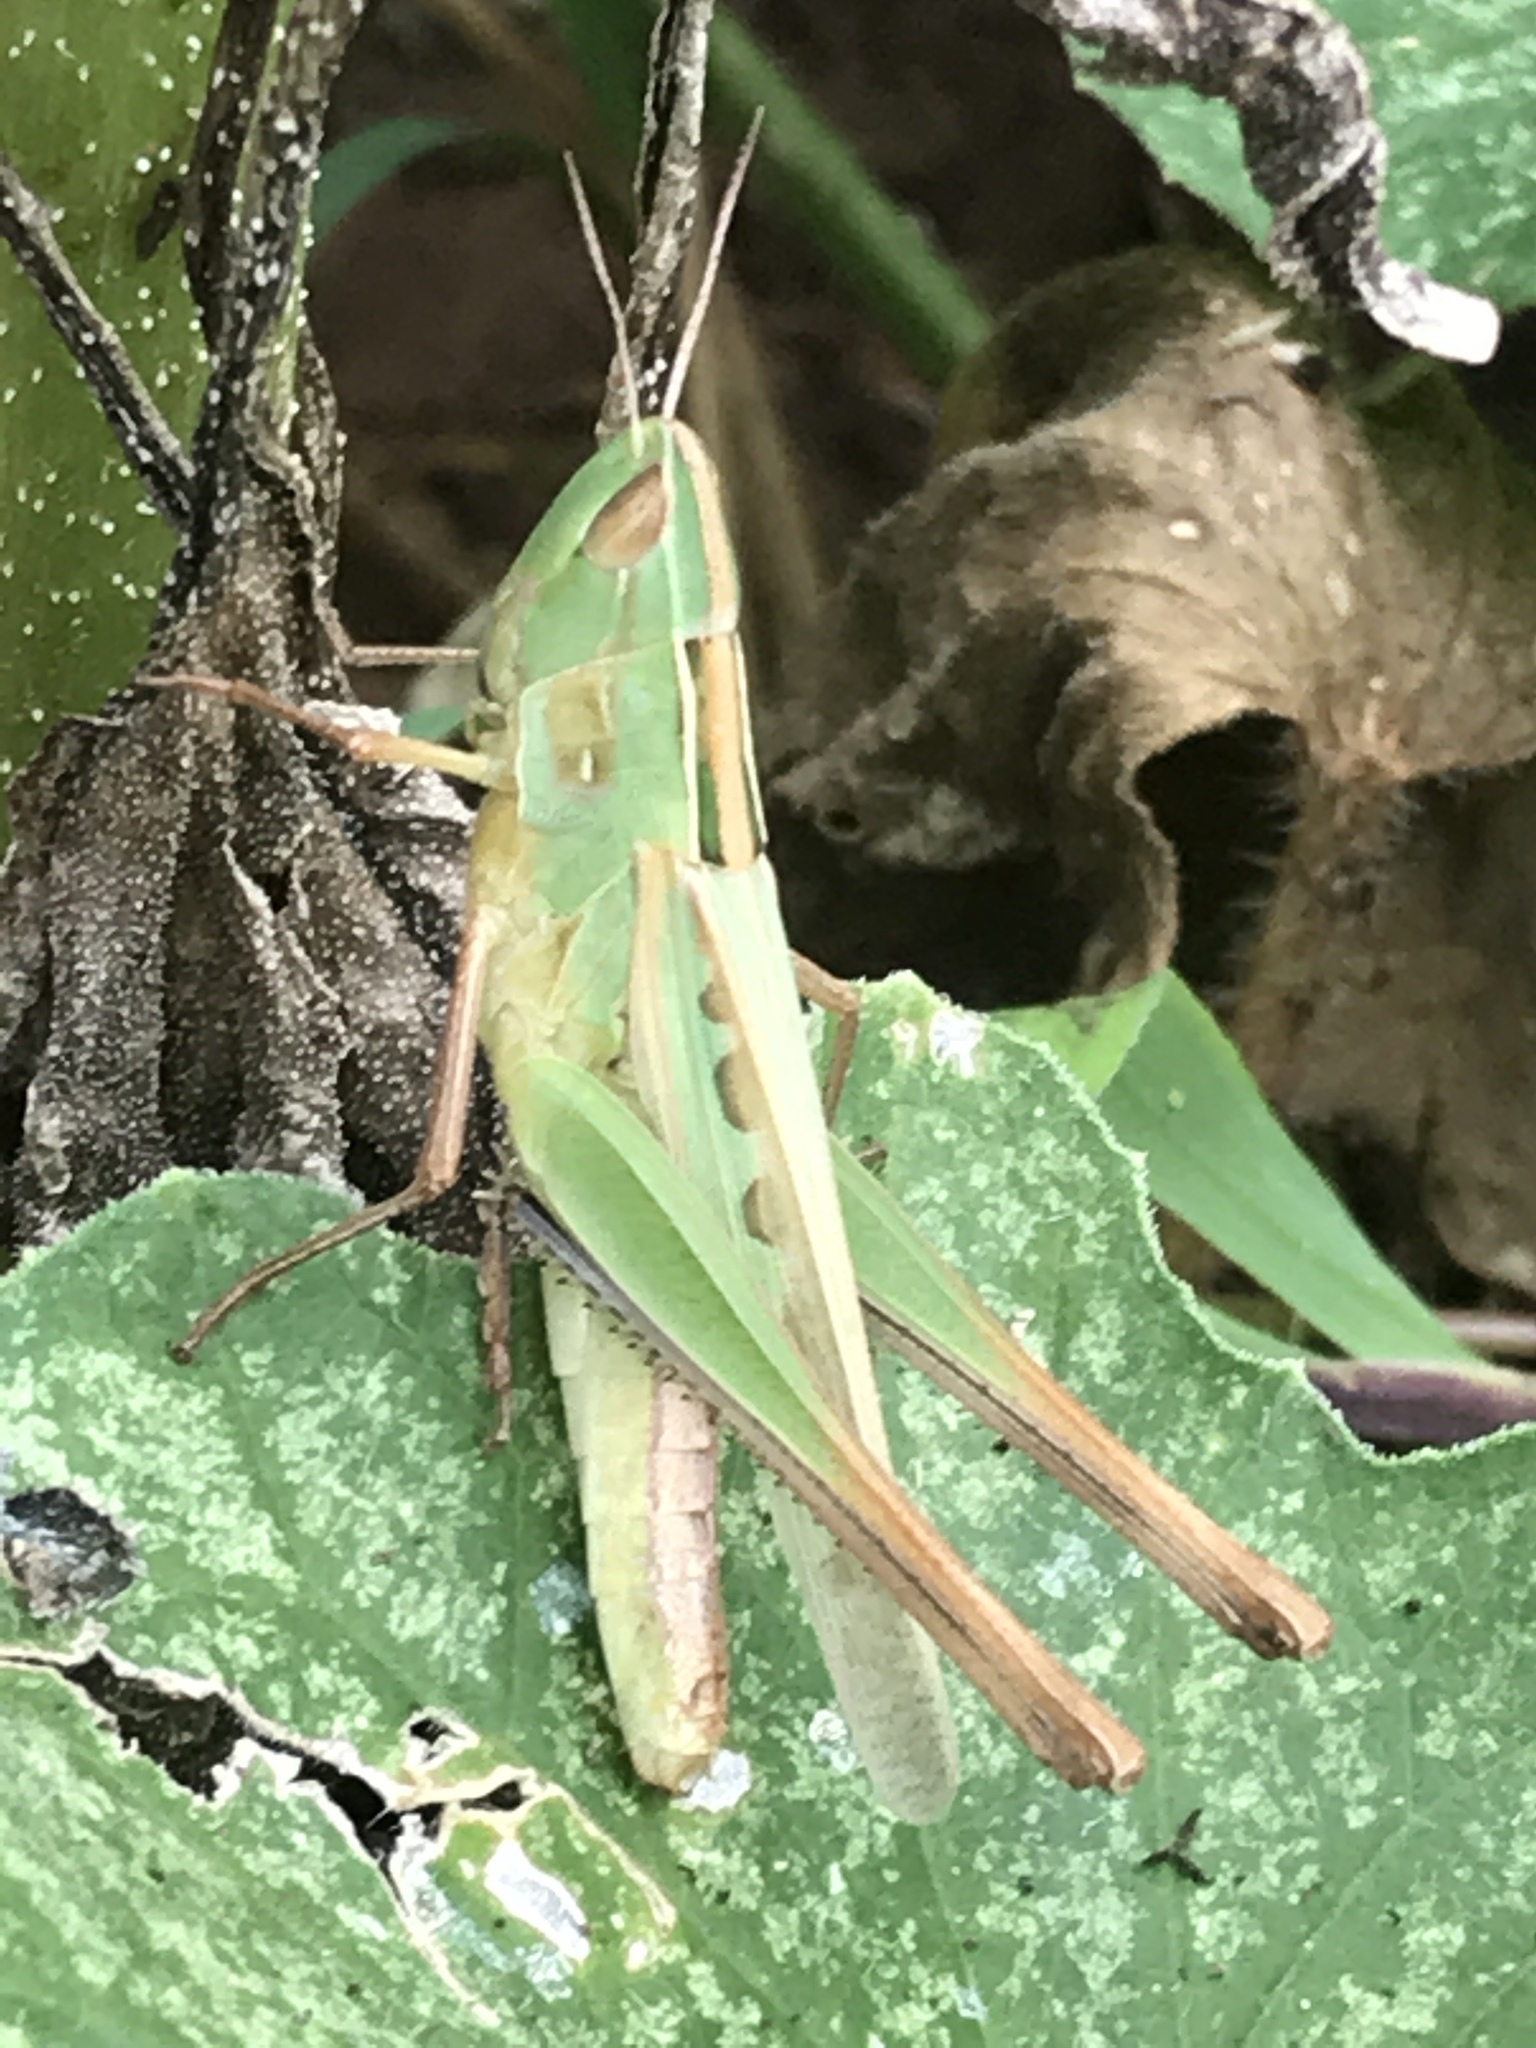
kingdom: Animalia
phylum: Arthropoda
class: Insecta
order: Orthoptera
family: Acrididae
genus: Syrbula
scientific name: Syrbula admirabilis
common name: Handsome grasshopper
